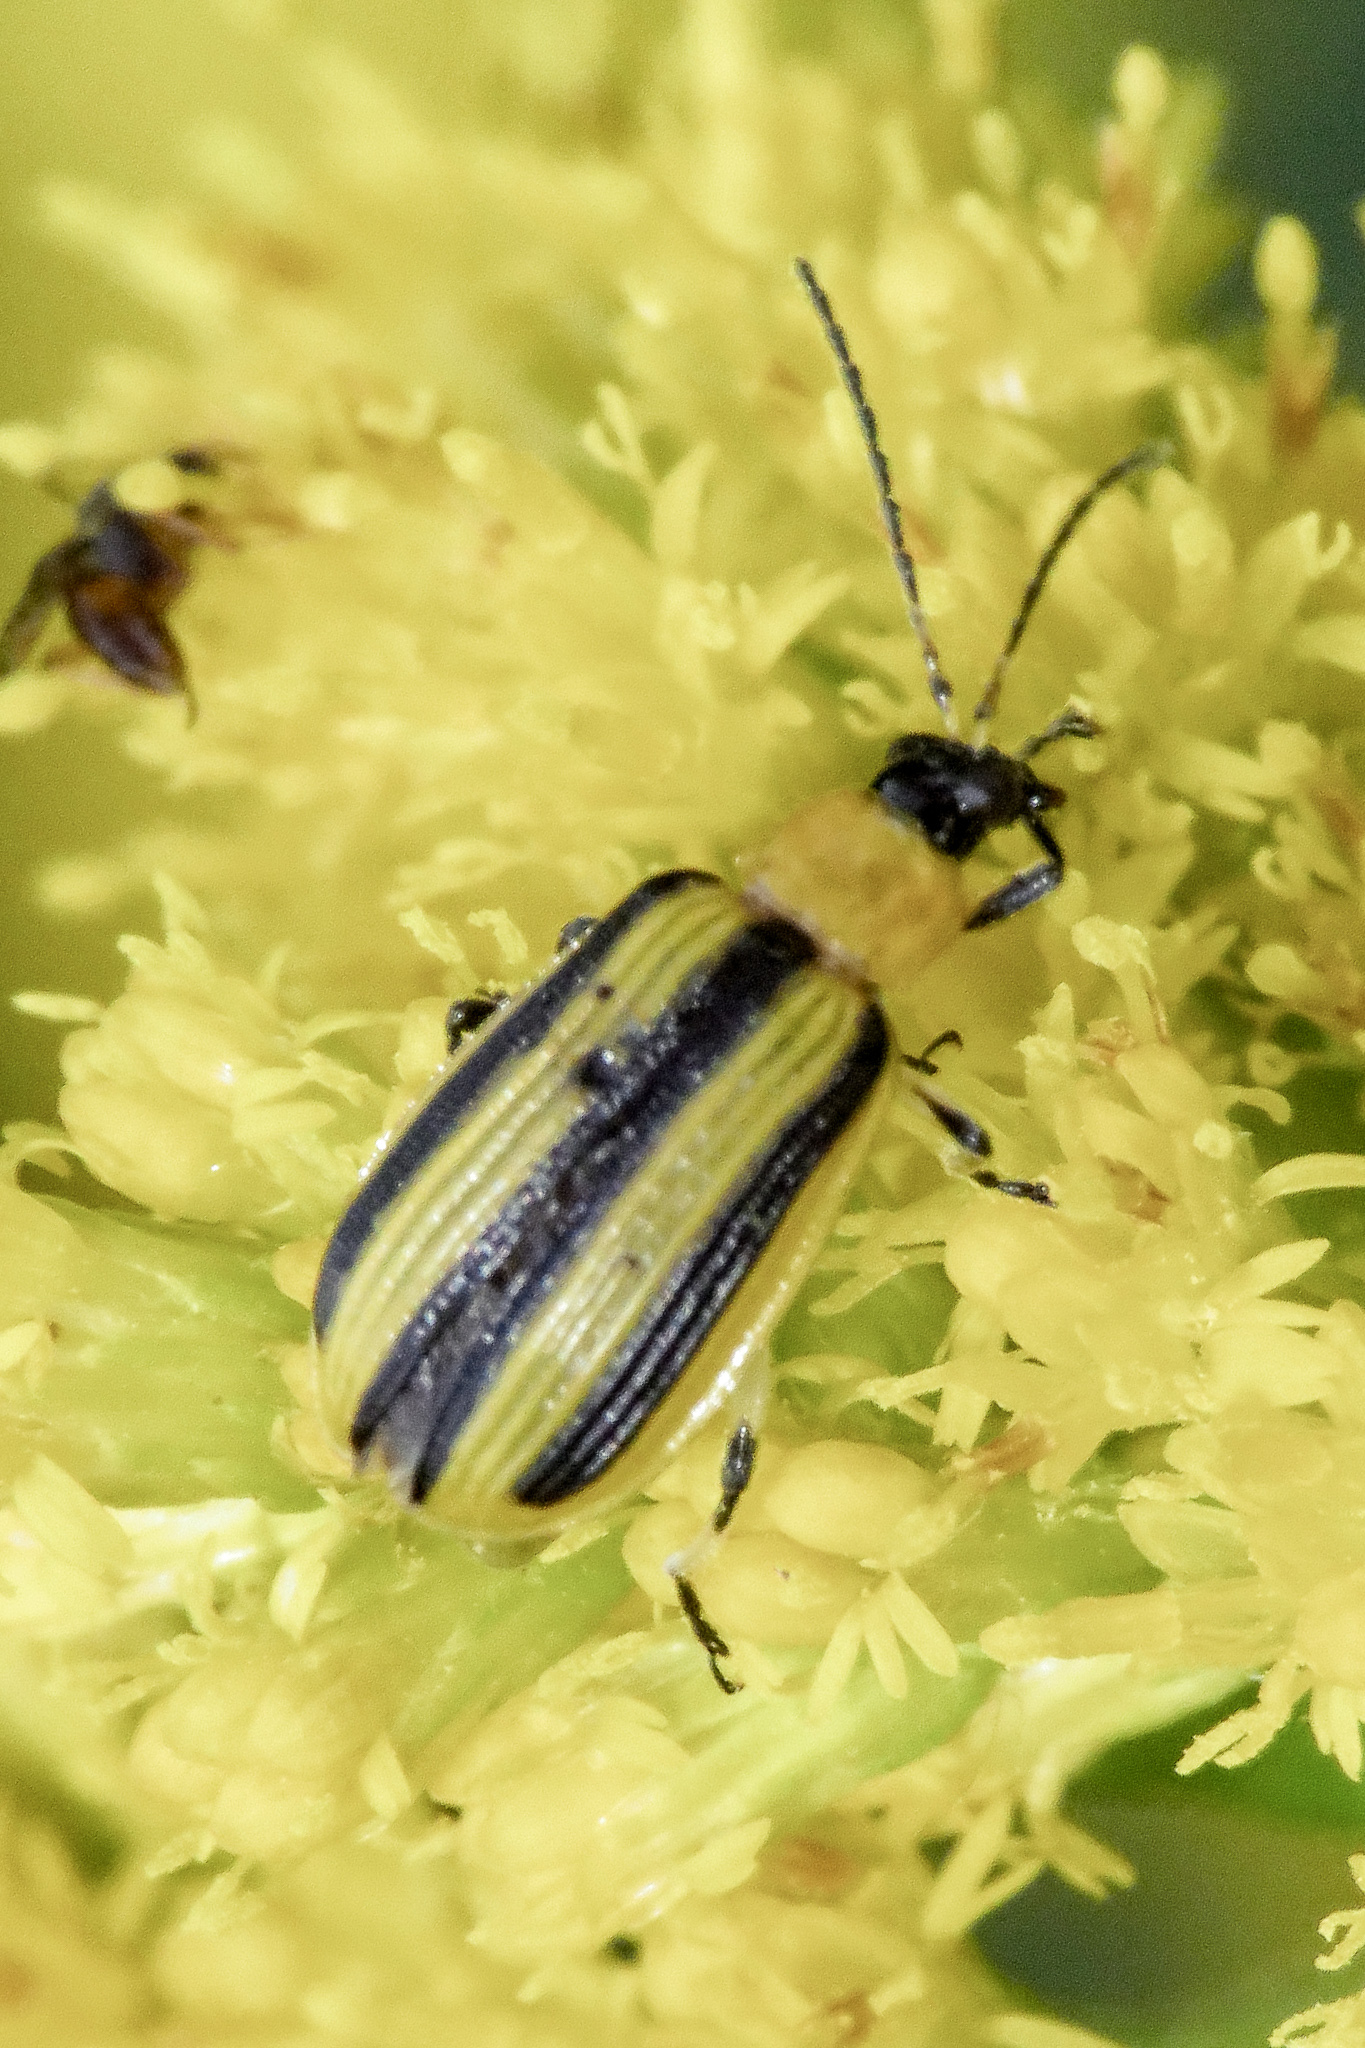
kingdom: Animalia
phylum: Arthropoda
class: Insecta
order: Coleoptera
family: Chrysomelidae
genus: Acalymma
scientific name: Acalymma vittatum
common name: Striped cucumber beetle
